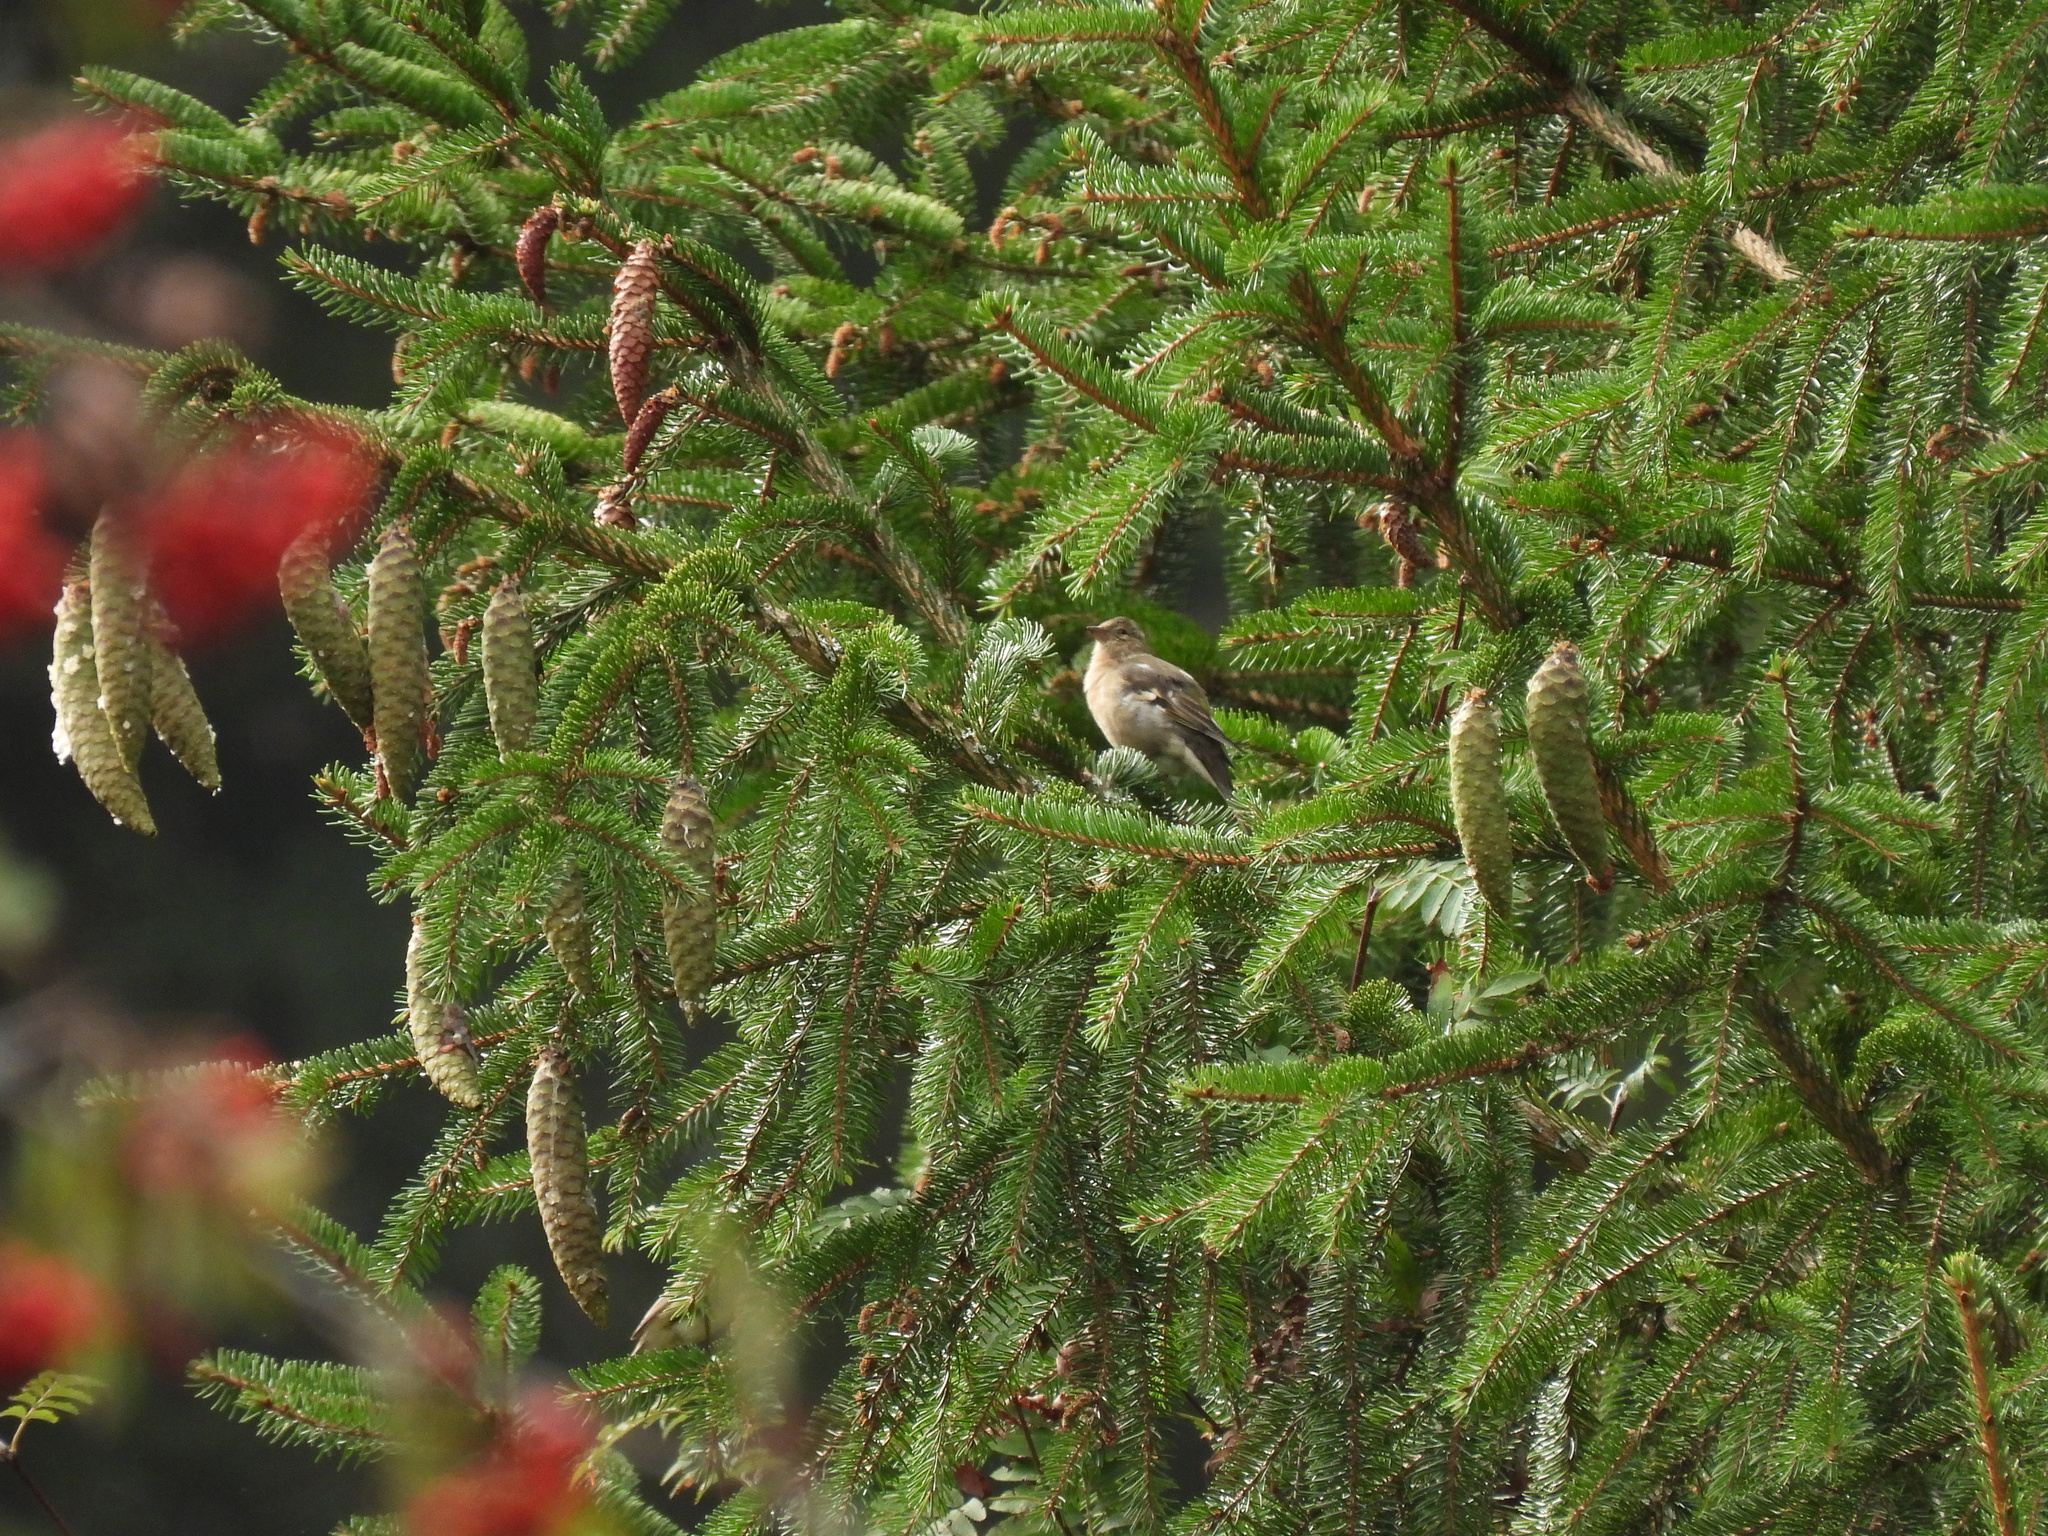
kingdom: Animalia
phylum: Chordata
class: Aves
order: Passeriformes
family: Fringillidae
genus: Fringilla
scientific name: Fringilla coelebs
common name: Common chaffinch
